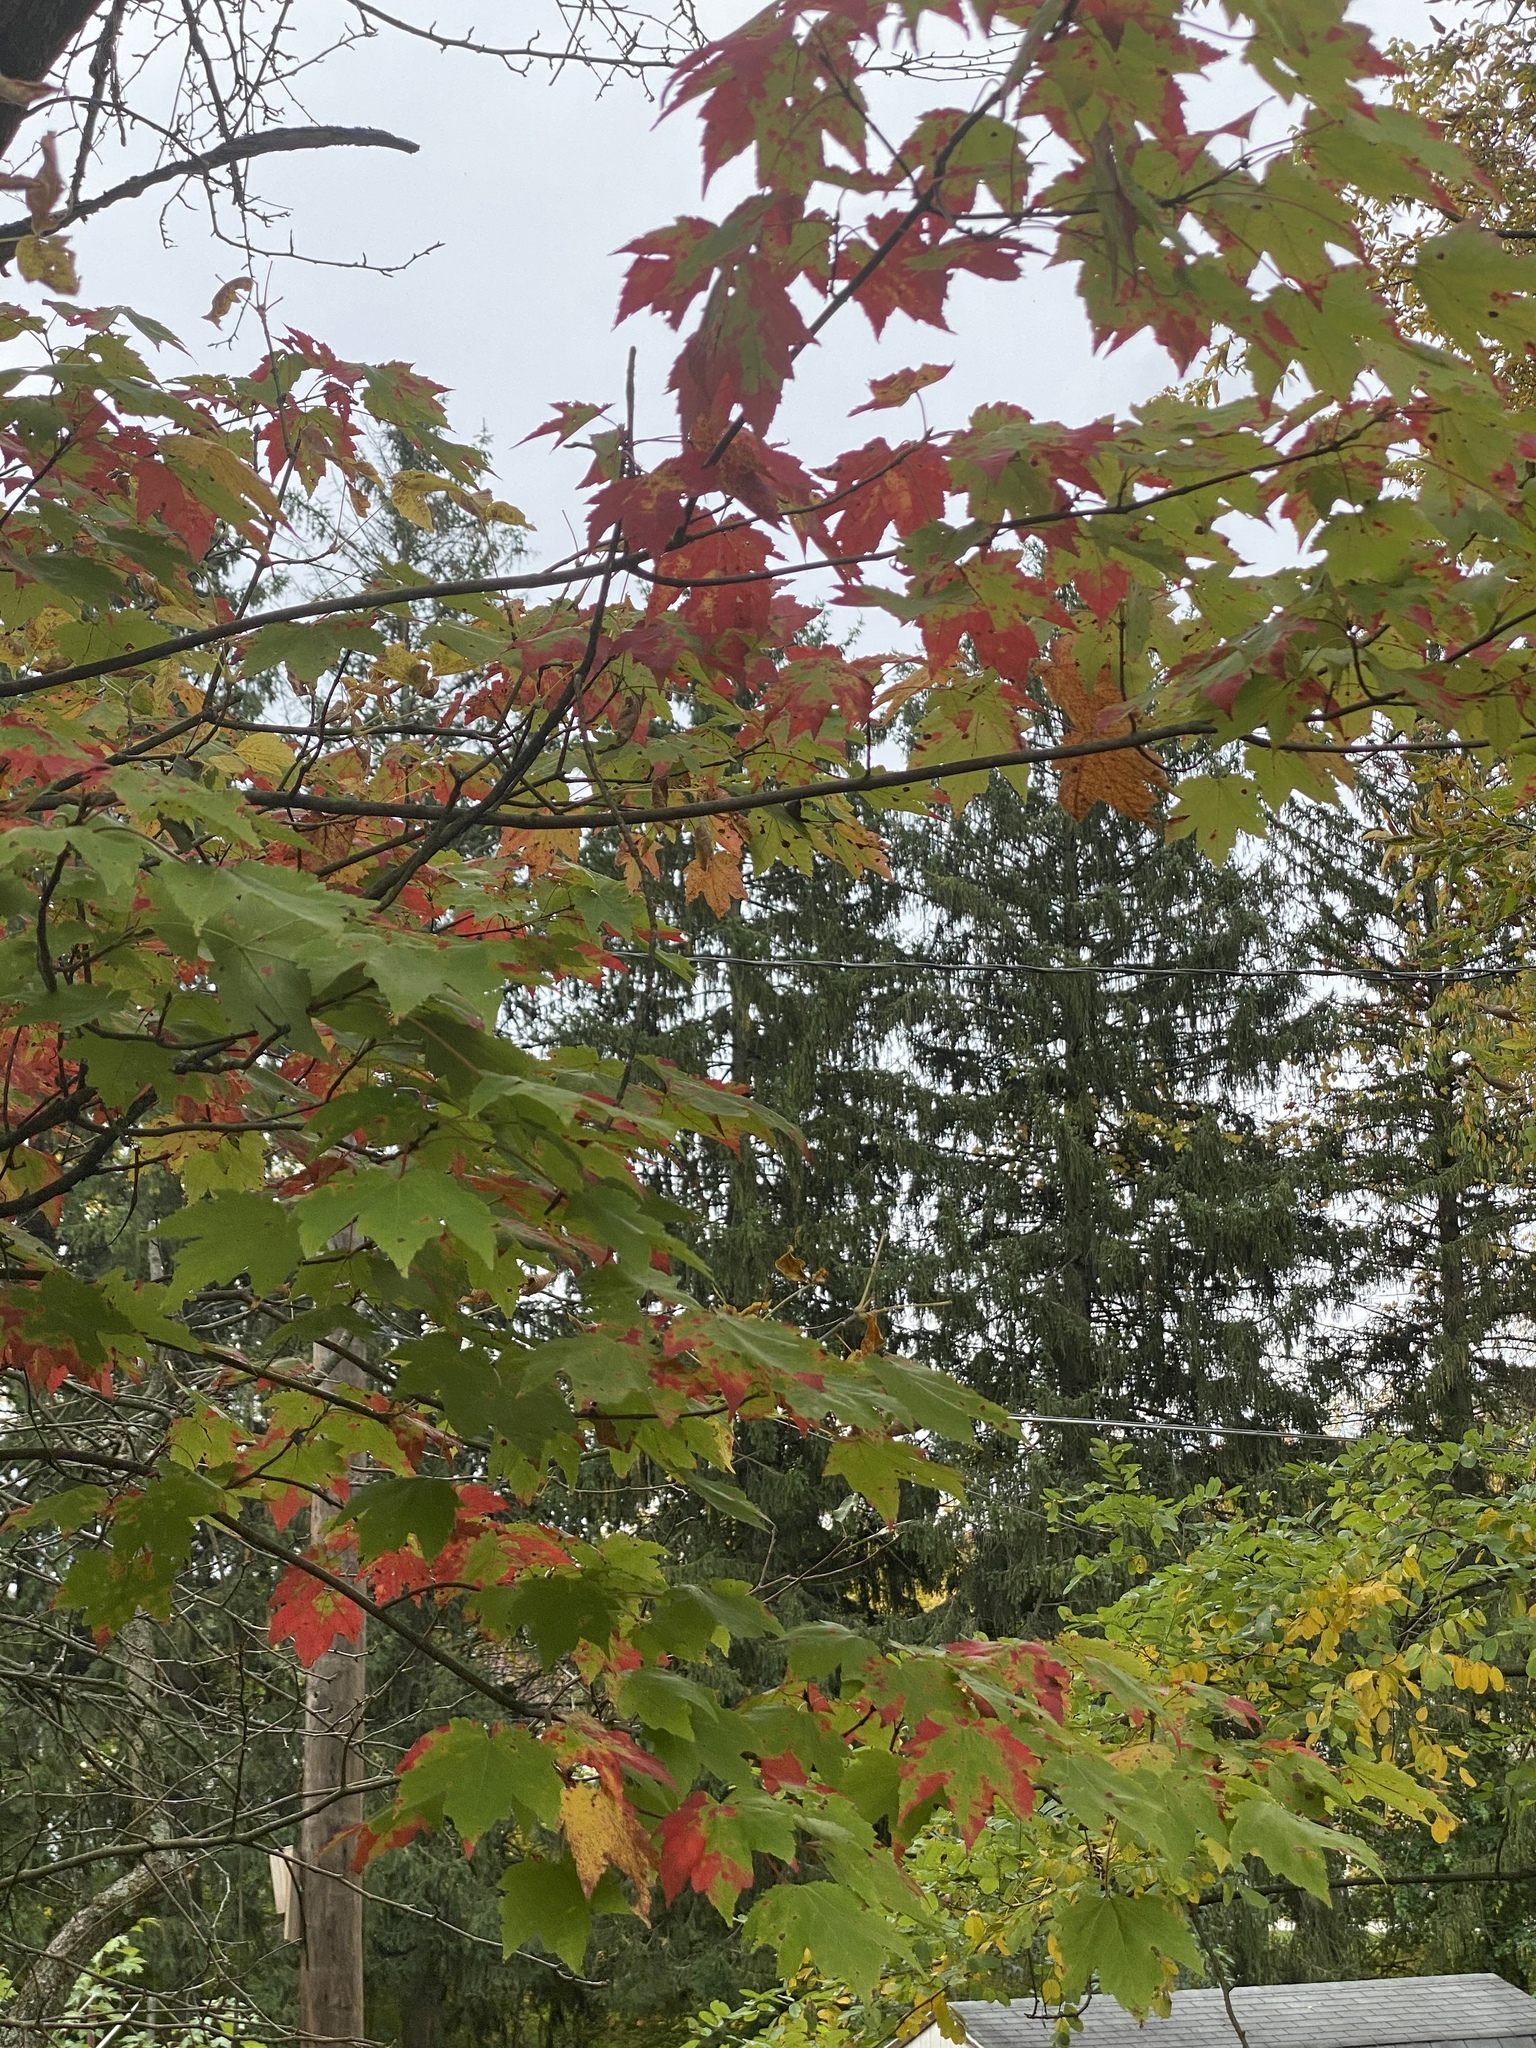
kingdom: Plantae
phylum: Tracheophyta
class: Magnoliopsida
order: Sapindales
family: Sapindaceae
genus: Acer
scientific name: Acer rubrum
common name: Red maple
